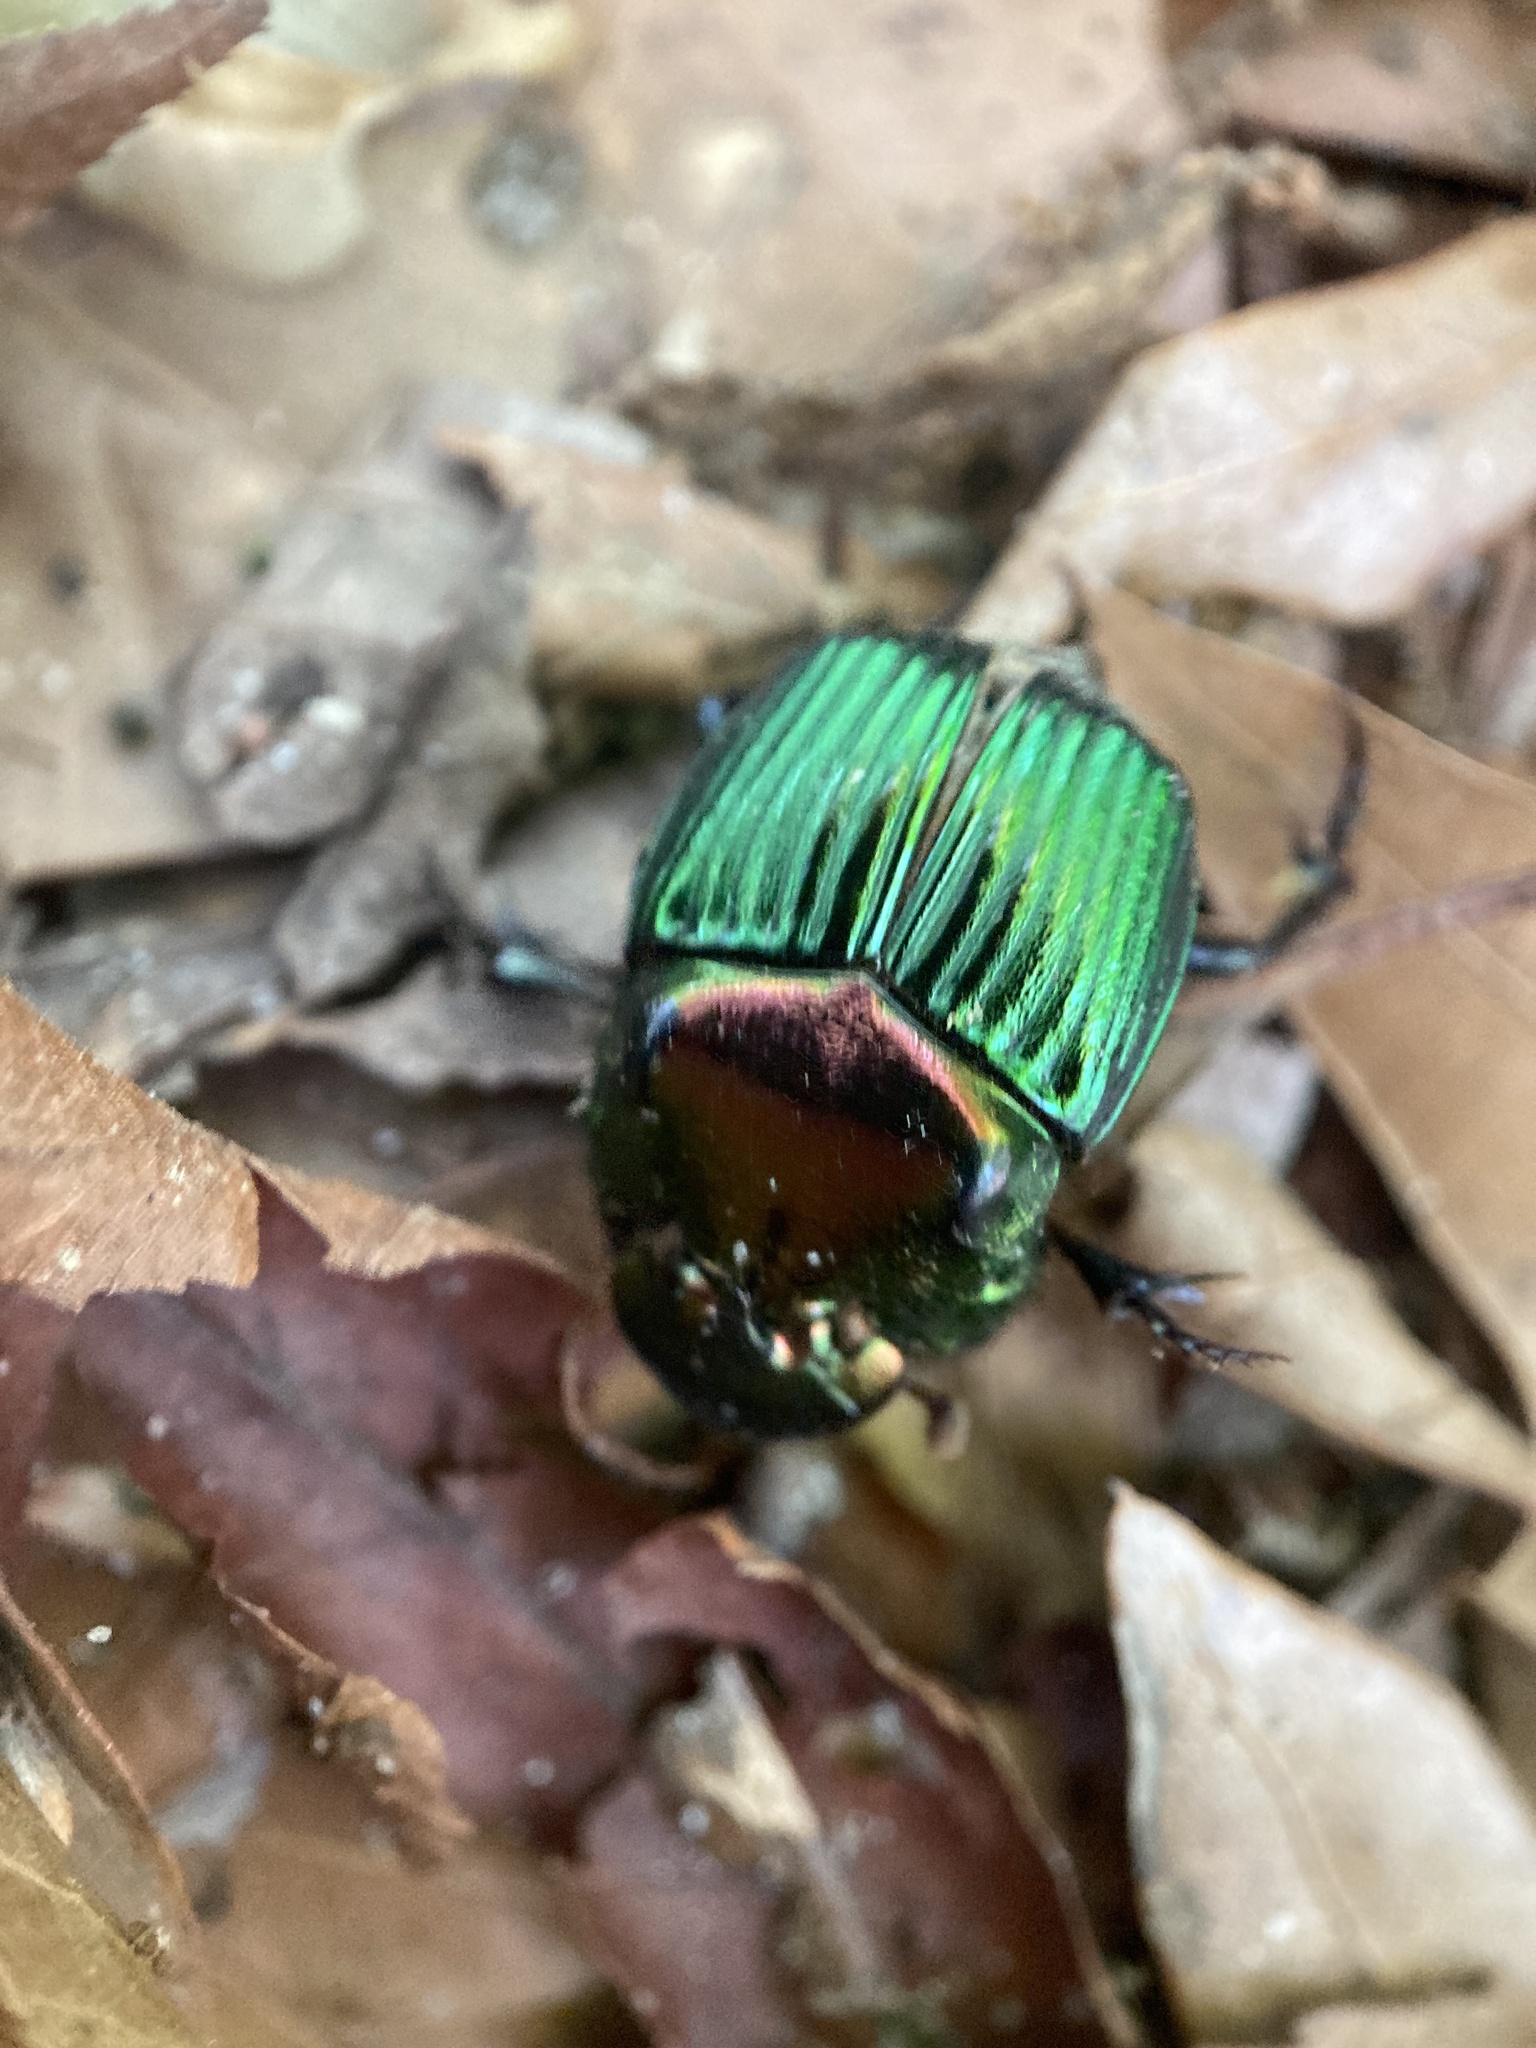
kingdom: Animalia
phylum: Arthropoda
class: Insecta
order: Coleoptera
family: Scarabaeidae
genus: Phanaeus
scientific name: Phanaeus igneus
